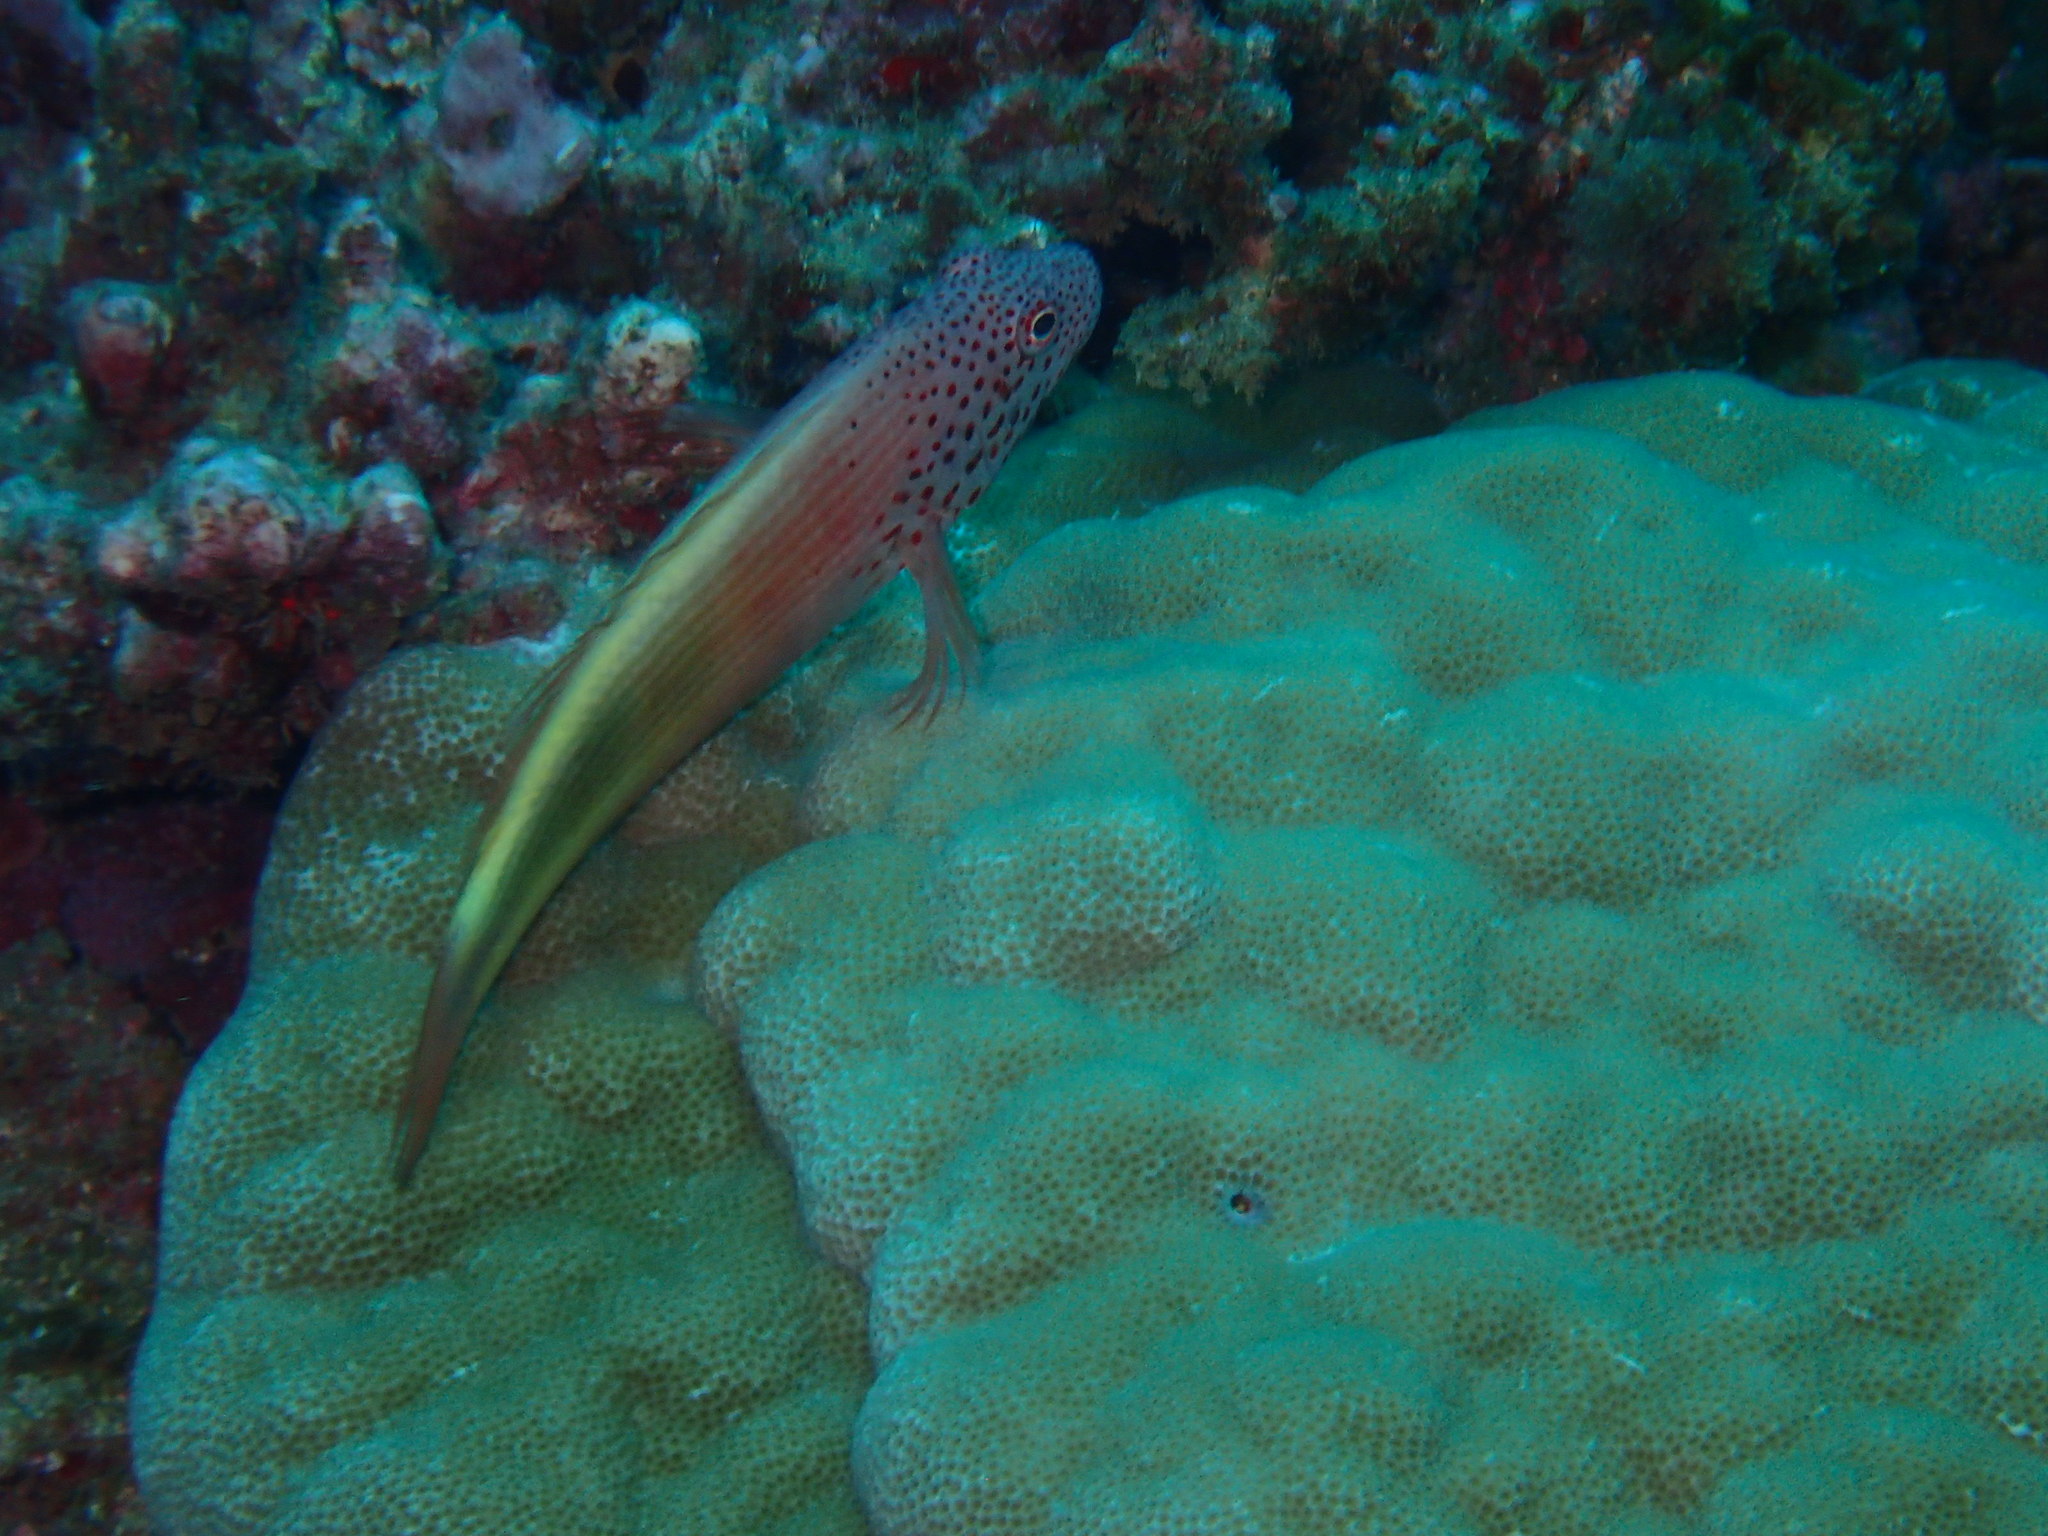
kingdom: Animalia
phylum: Chordata
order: Perciformes
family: Cirrhitidae
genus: Paracirrhites
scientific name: Paracirrhites forsteri
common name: Freckled hawkfish
